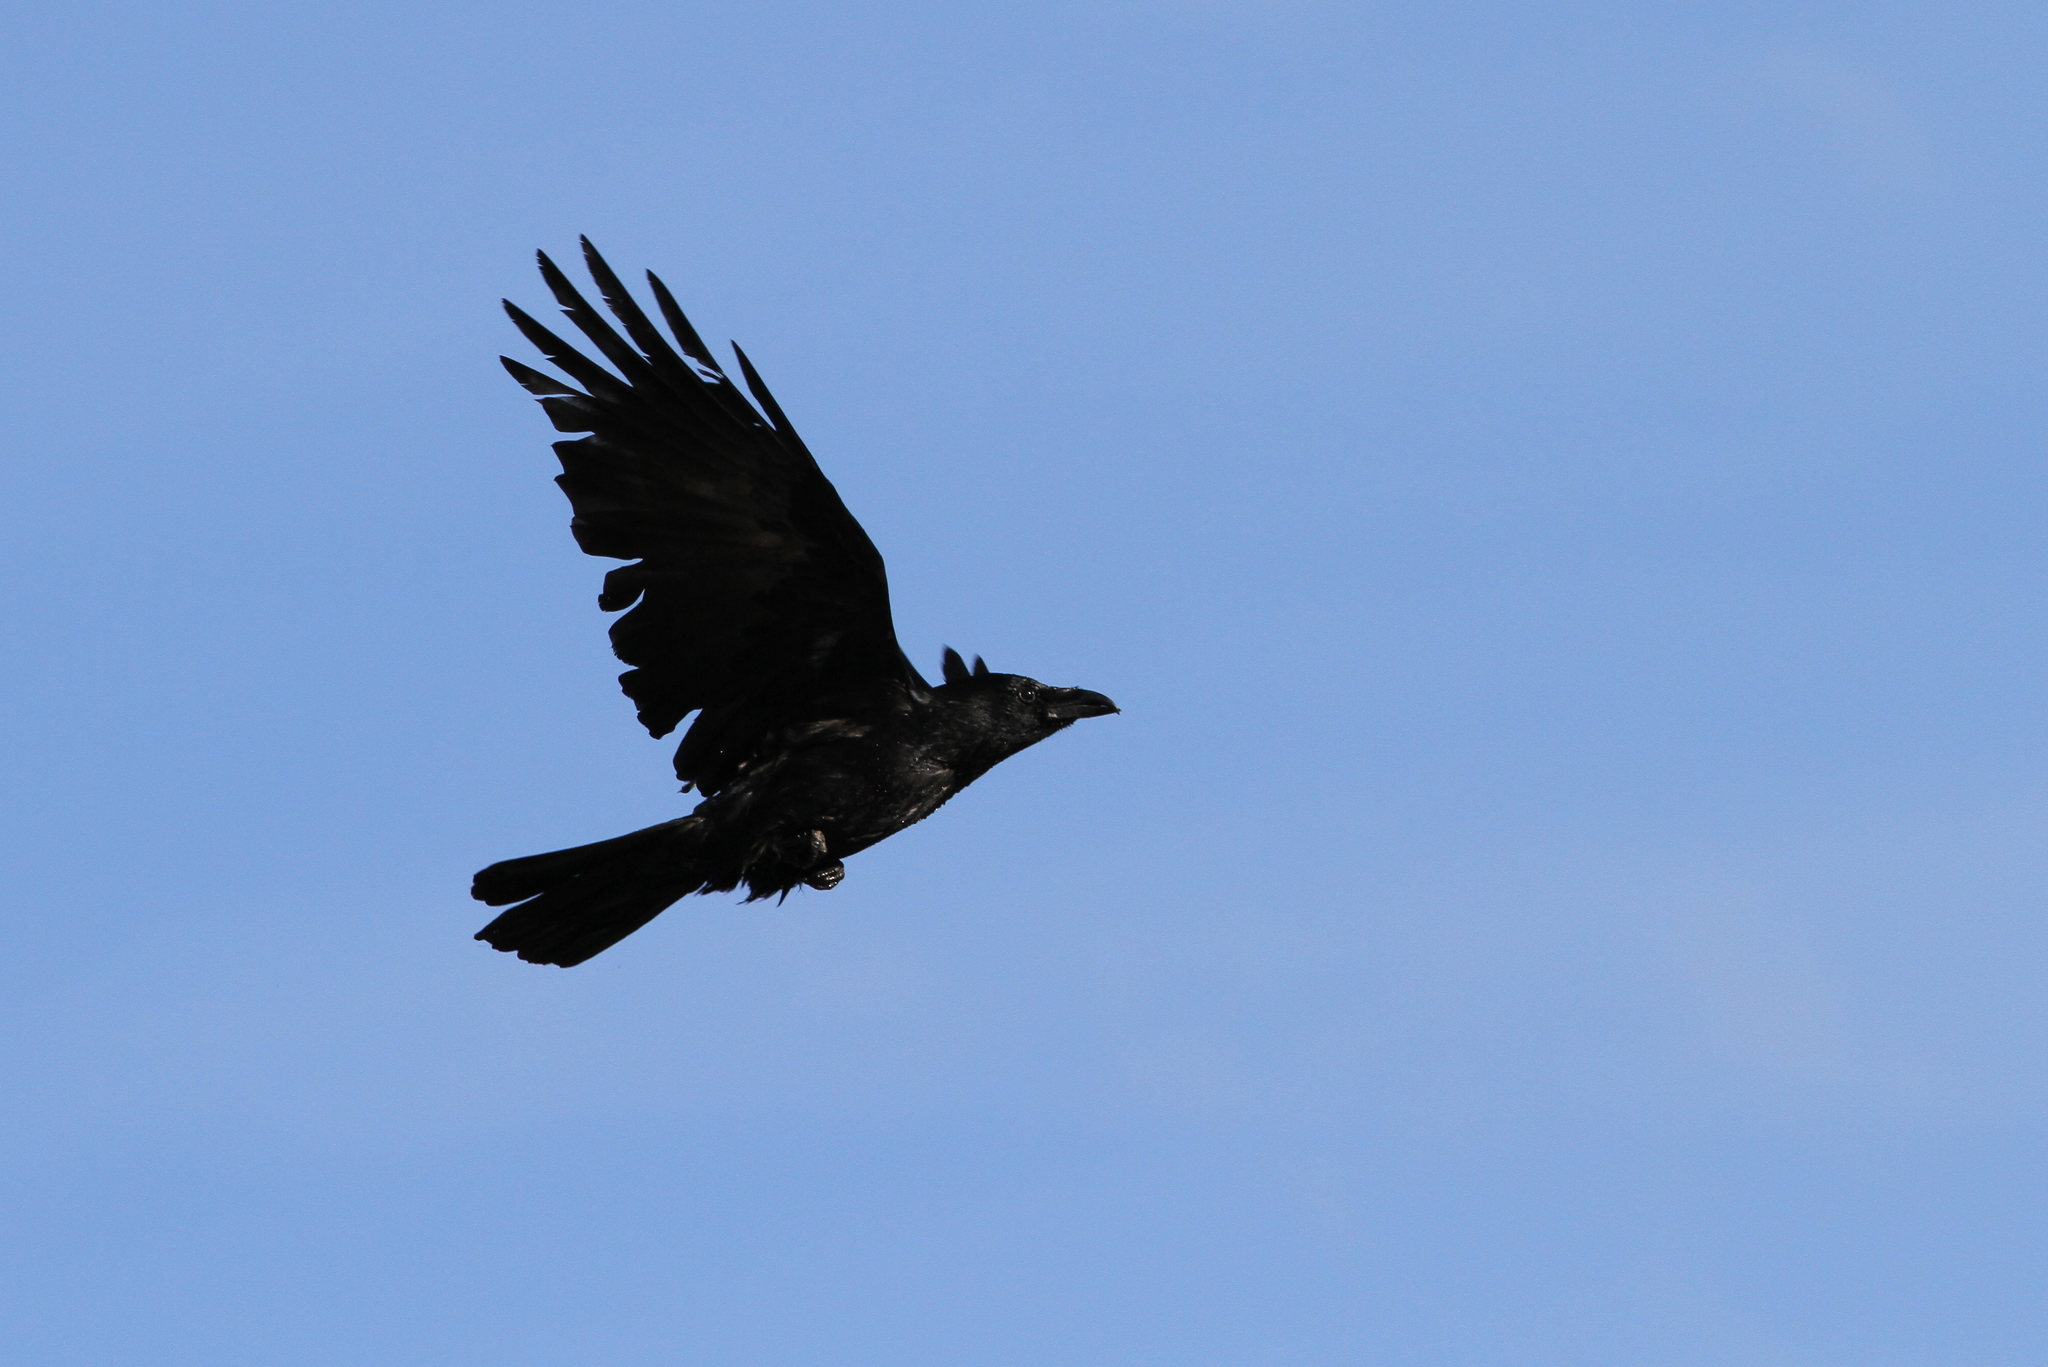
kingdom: Animalia
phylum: Chordata
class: Aves
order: Passeriformes
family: Corvidae
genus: Corvus
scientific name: Corvus corone
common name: Carrion crow
